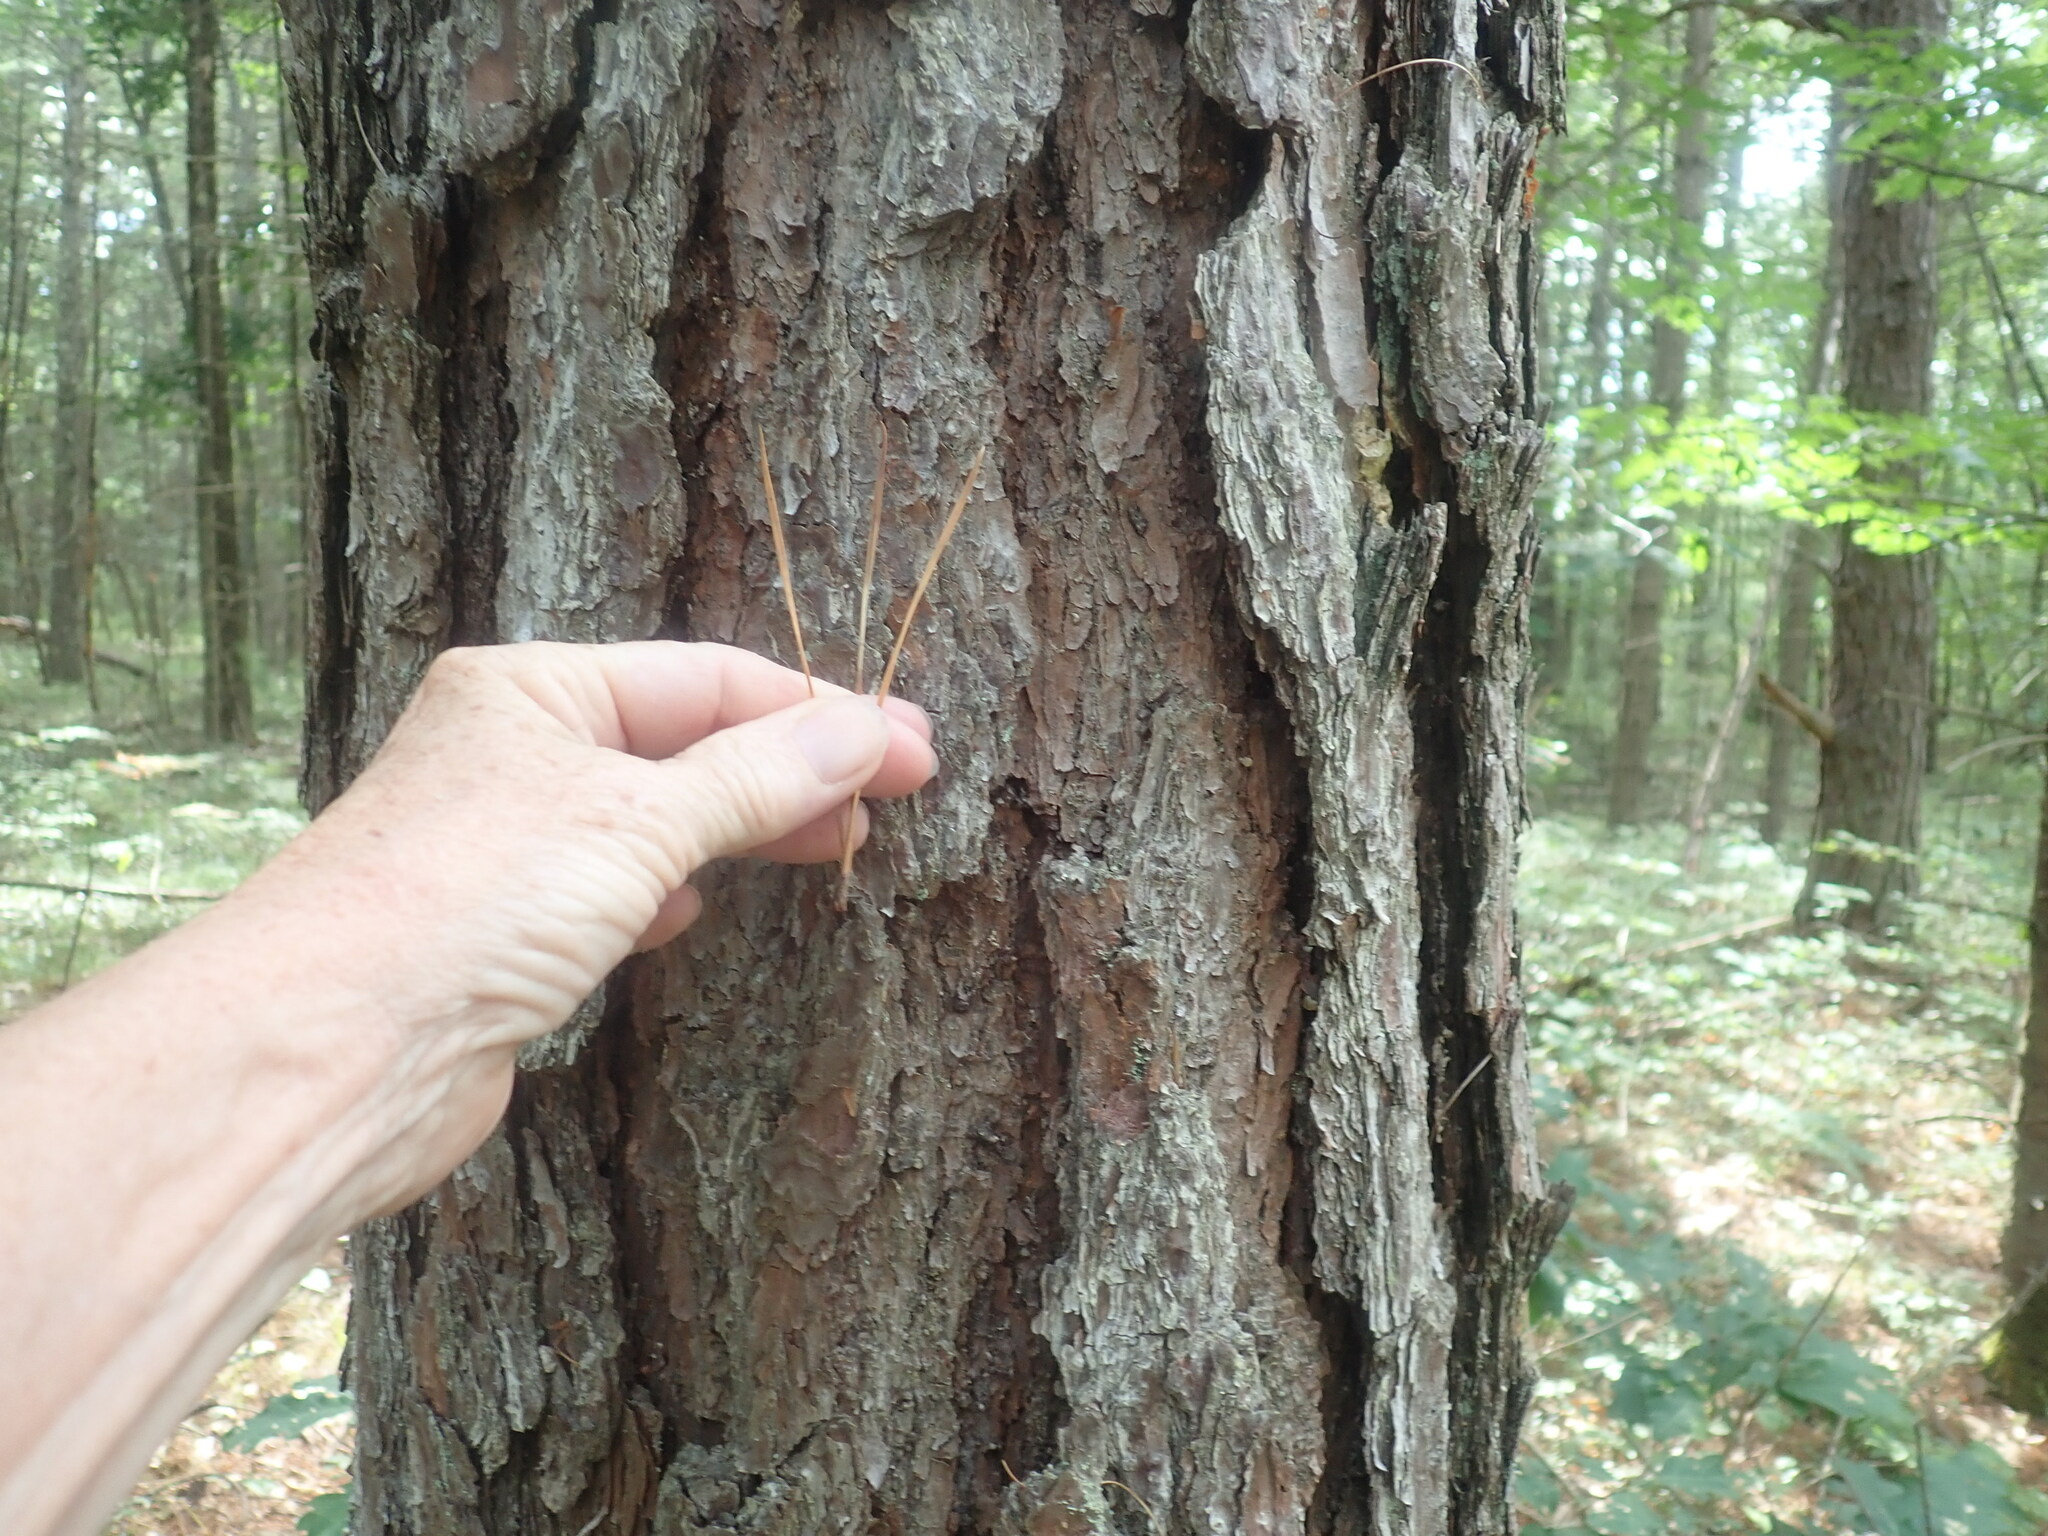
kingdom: Plantae
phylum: Tracheophyta
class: Pinopsida
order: Pinales
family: Pinaceae
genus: Pinus
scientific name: Pinus rigida
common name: Pitch pine
